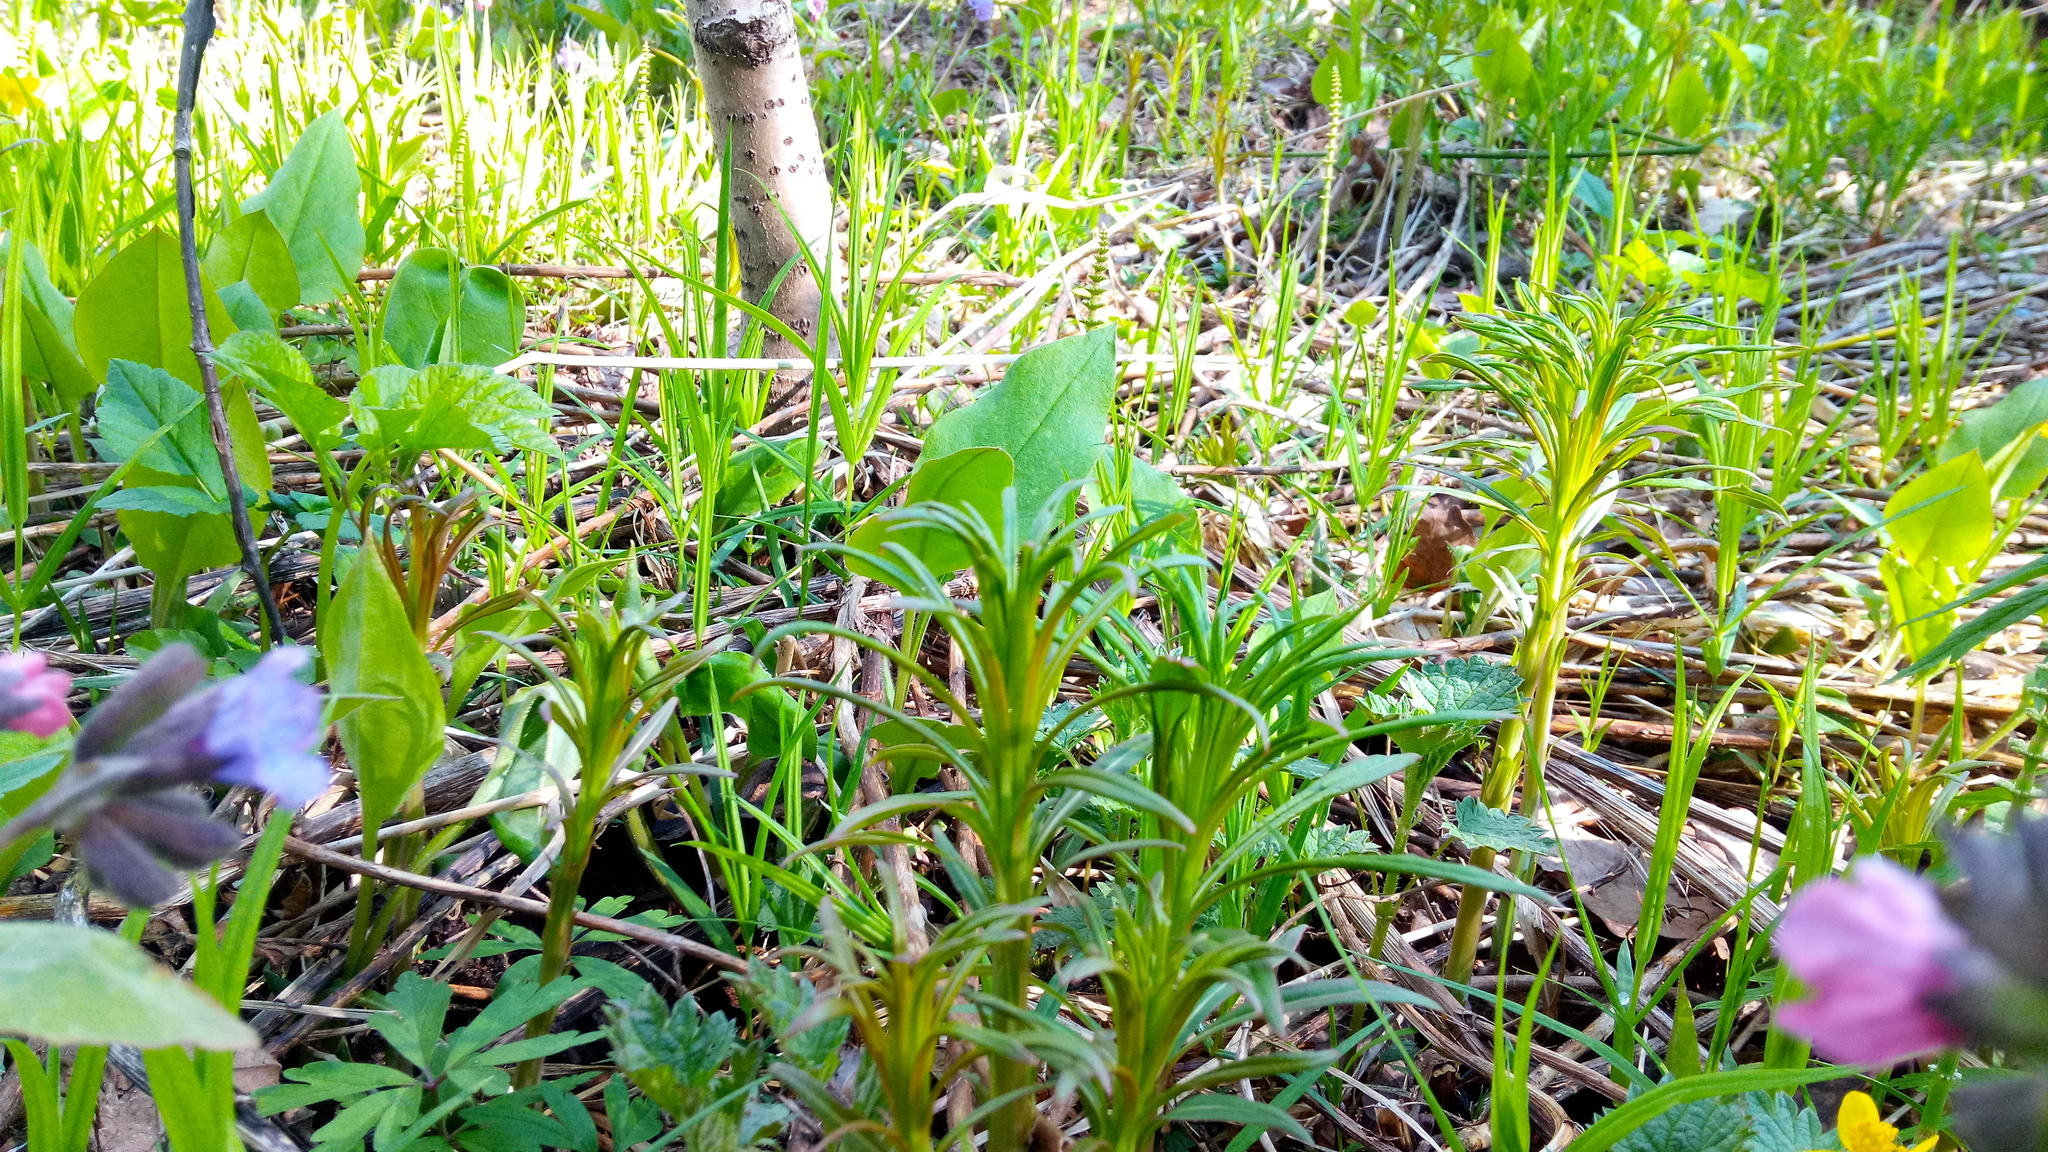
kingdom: Plantae
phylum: Tracheophyta
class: Magnoliopsida
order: Myrtales
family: Onagraceae
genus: Chamaenerion
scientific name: Chamaenerion angustifolium
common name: Fireweed
